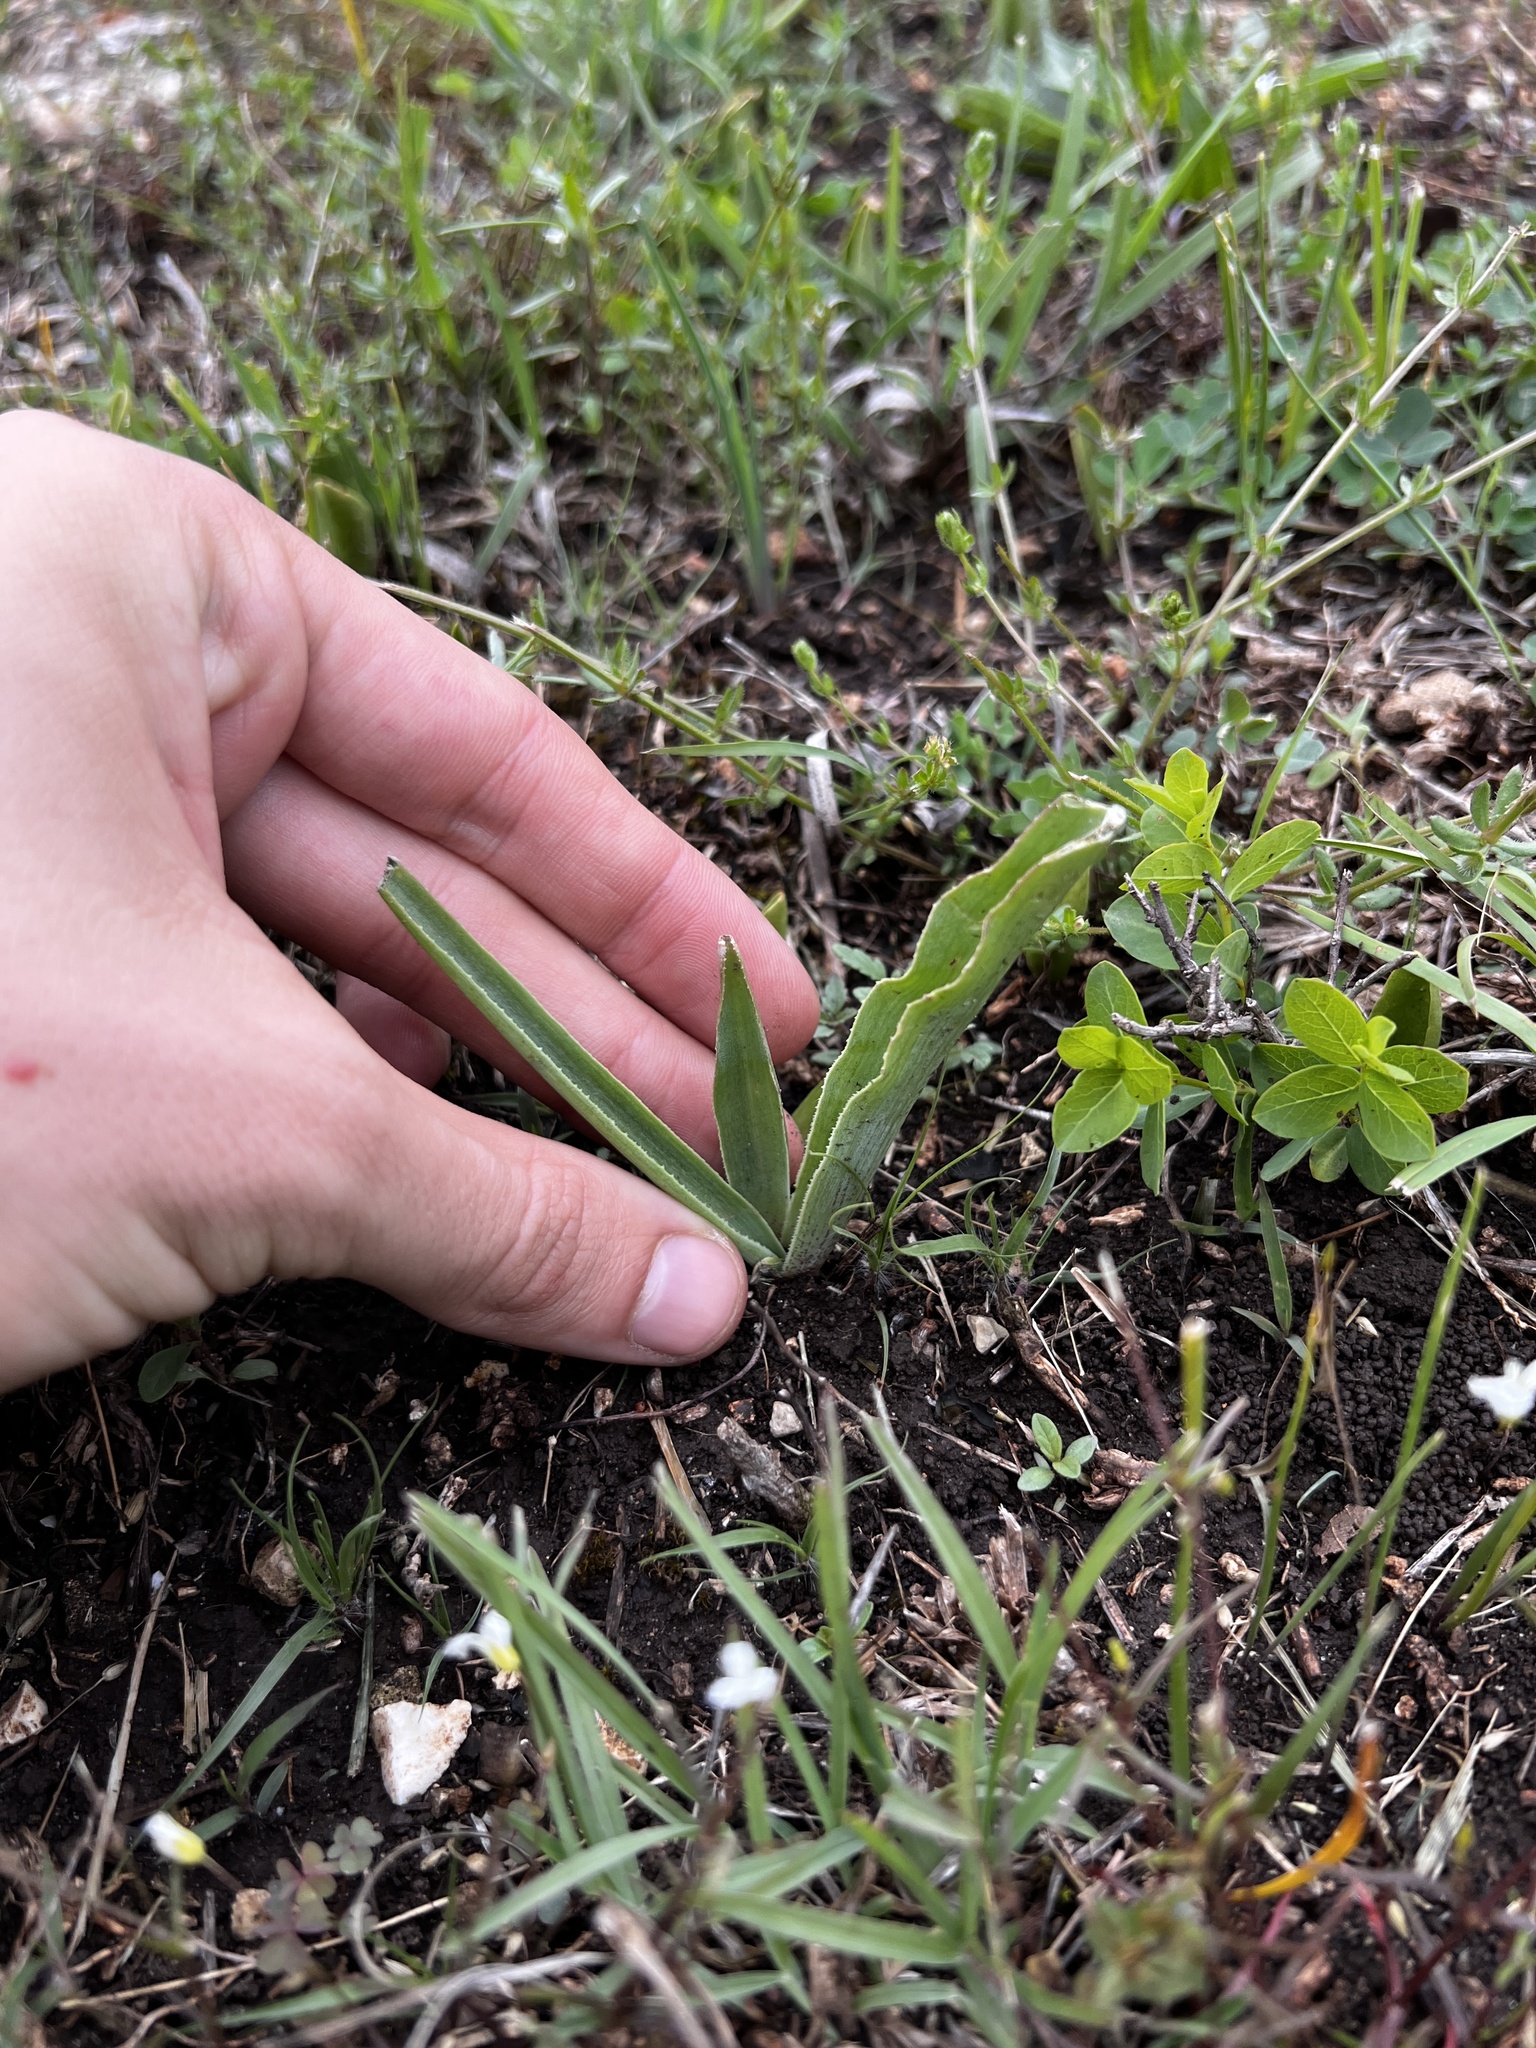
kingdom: Plantae
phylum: Tracheophyta
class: Liliopsida
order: Asparagales
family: Asparagaceae
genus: Agave
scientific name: Agave virginica
